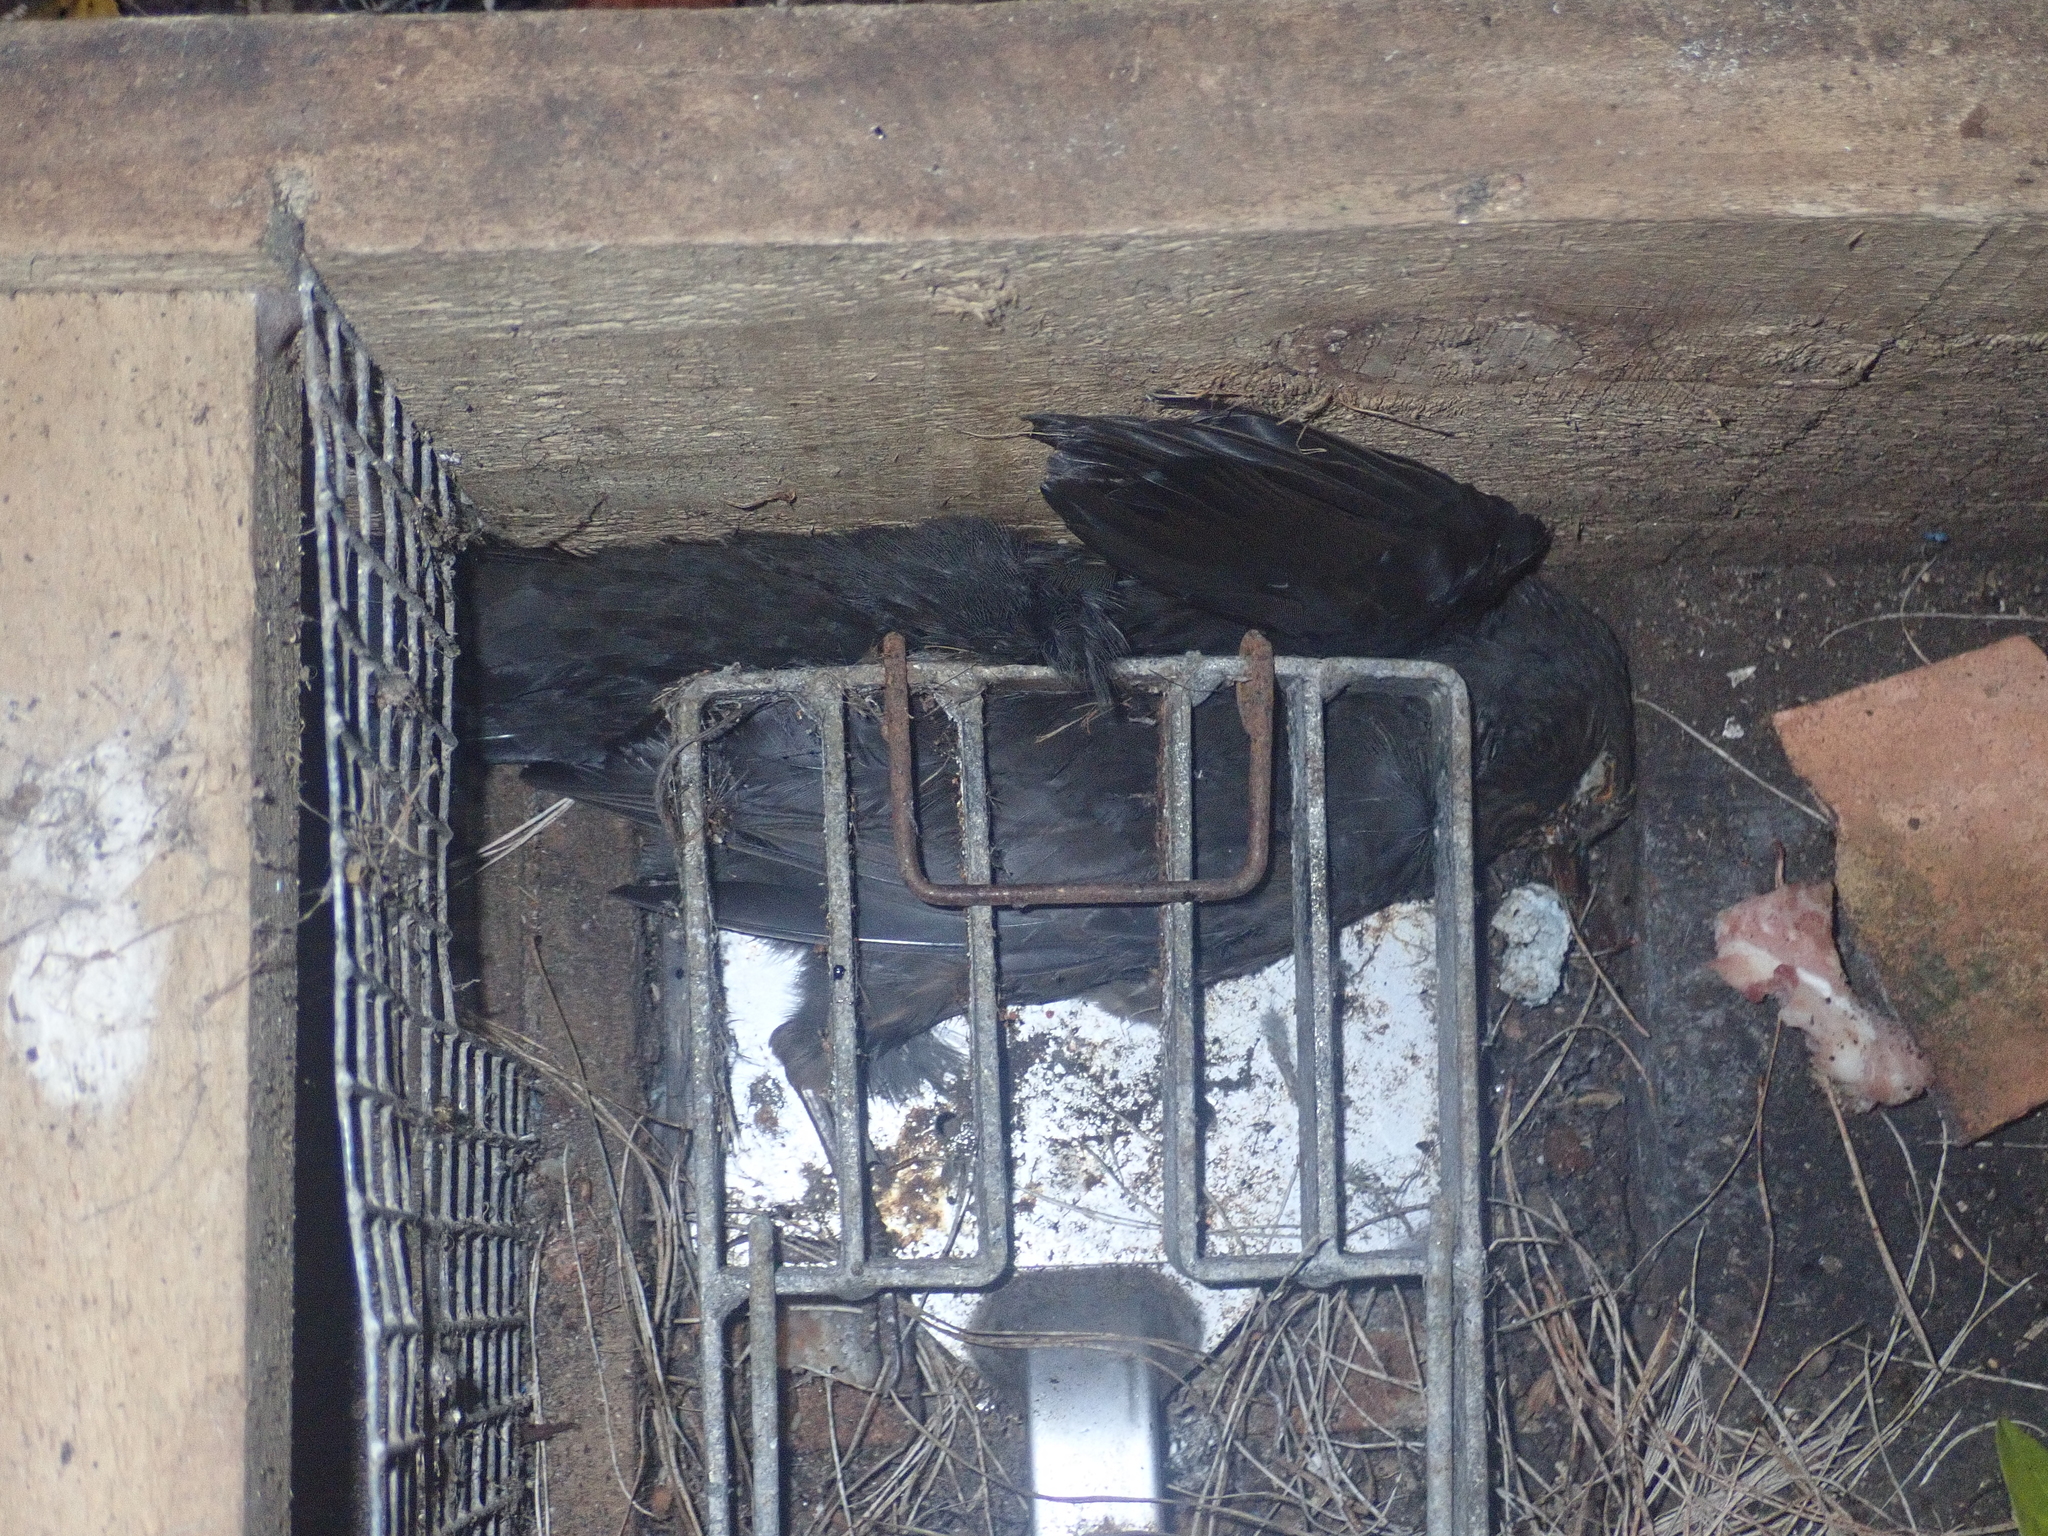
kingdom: Animalia
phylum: Chordata
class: Aves
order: Passeriformes
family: Turdidae
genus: Turdus
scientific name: Turdus merula
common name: Common blackbird
